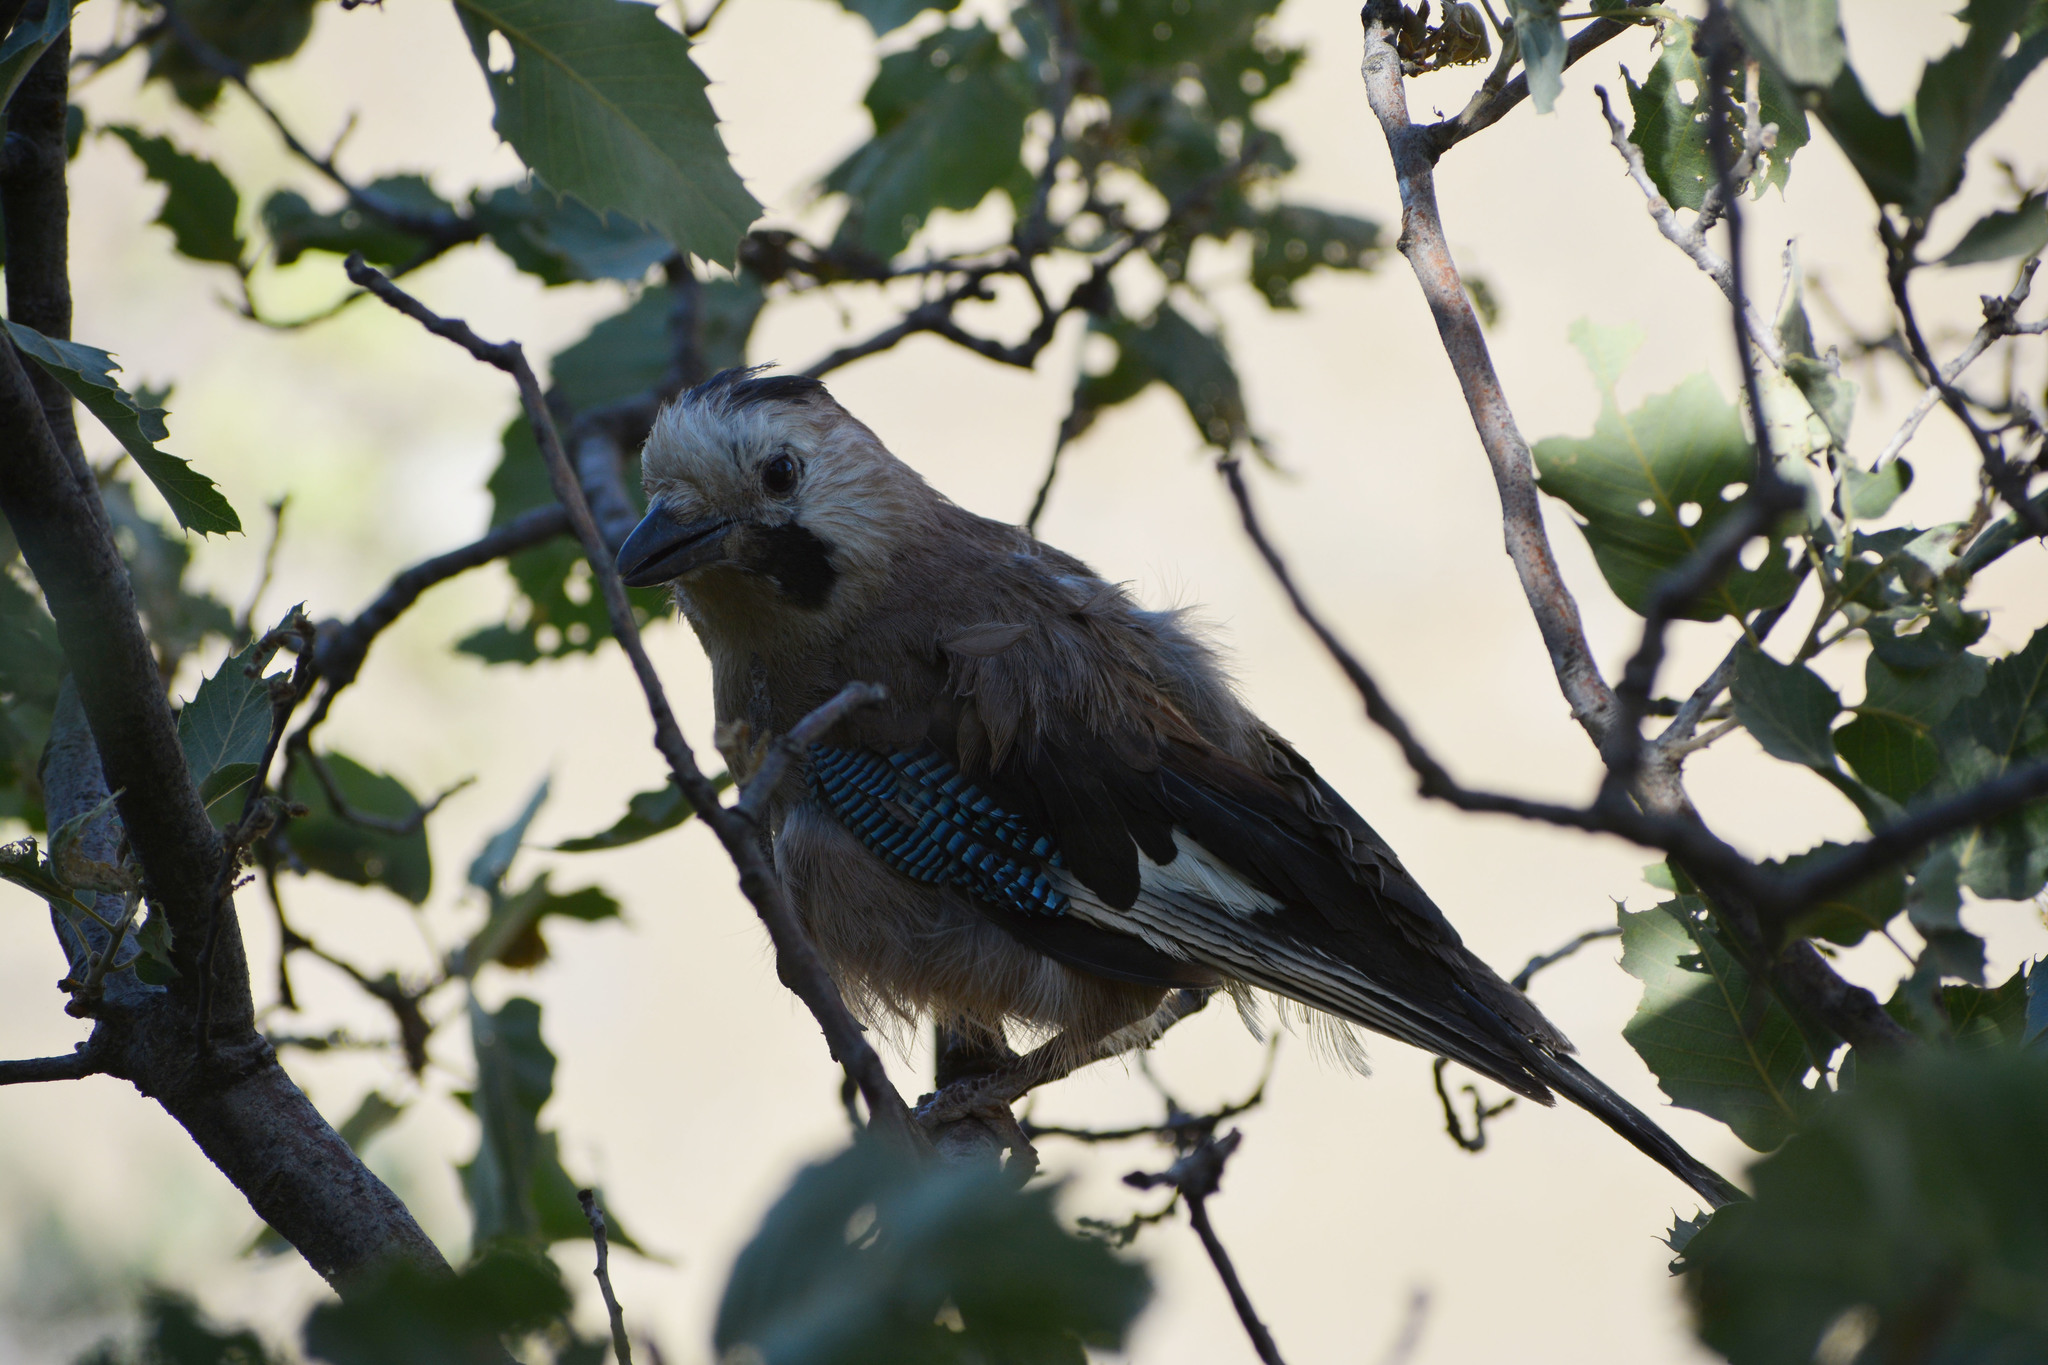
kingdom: Animalia
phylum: Chordata
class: Aves
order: Passeriformes
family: Corvidae
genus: Garrulus
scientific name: Garrulus glandarius
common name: Eurasian jay
